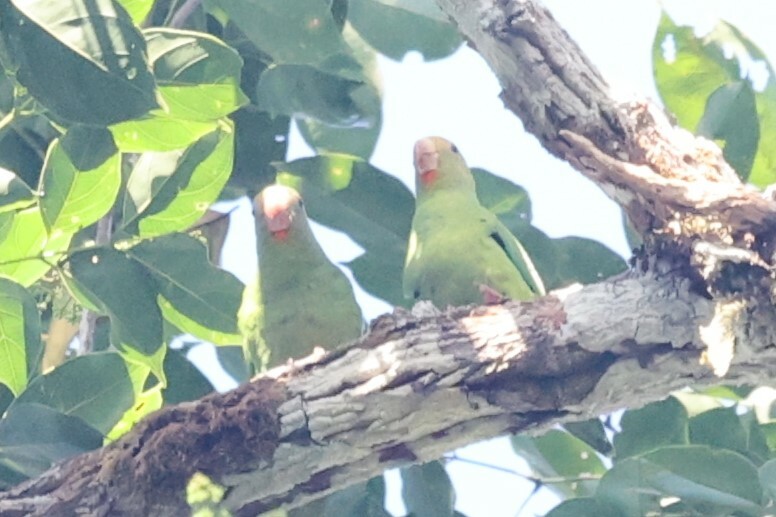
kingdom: Animalia
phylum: Chordata
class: Aves
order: Psittaciformes
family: Psittacidae
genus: Brotogeris
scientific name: Brotogeris cyanoptera
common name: Cobalt-winged parakeet
